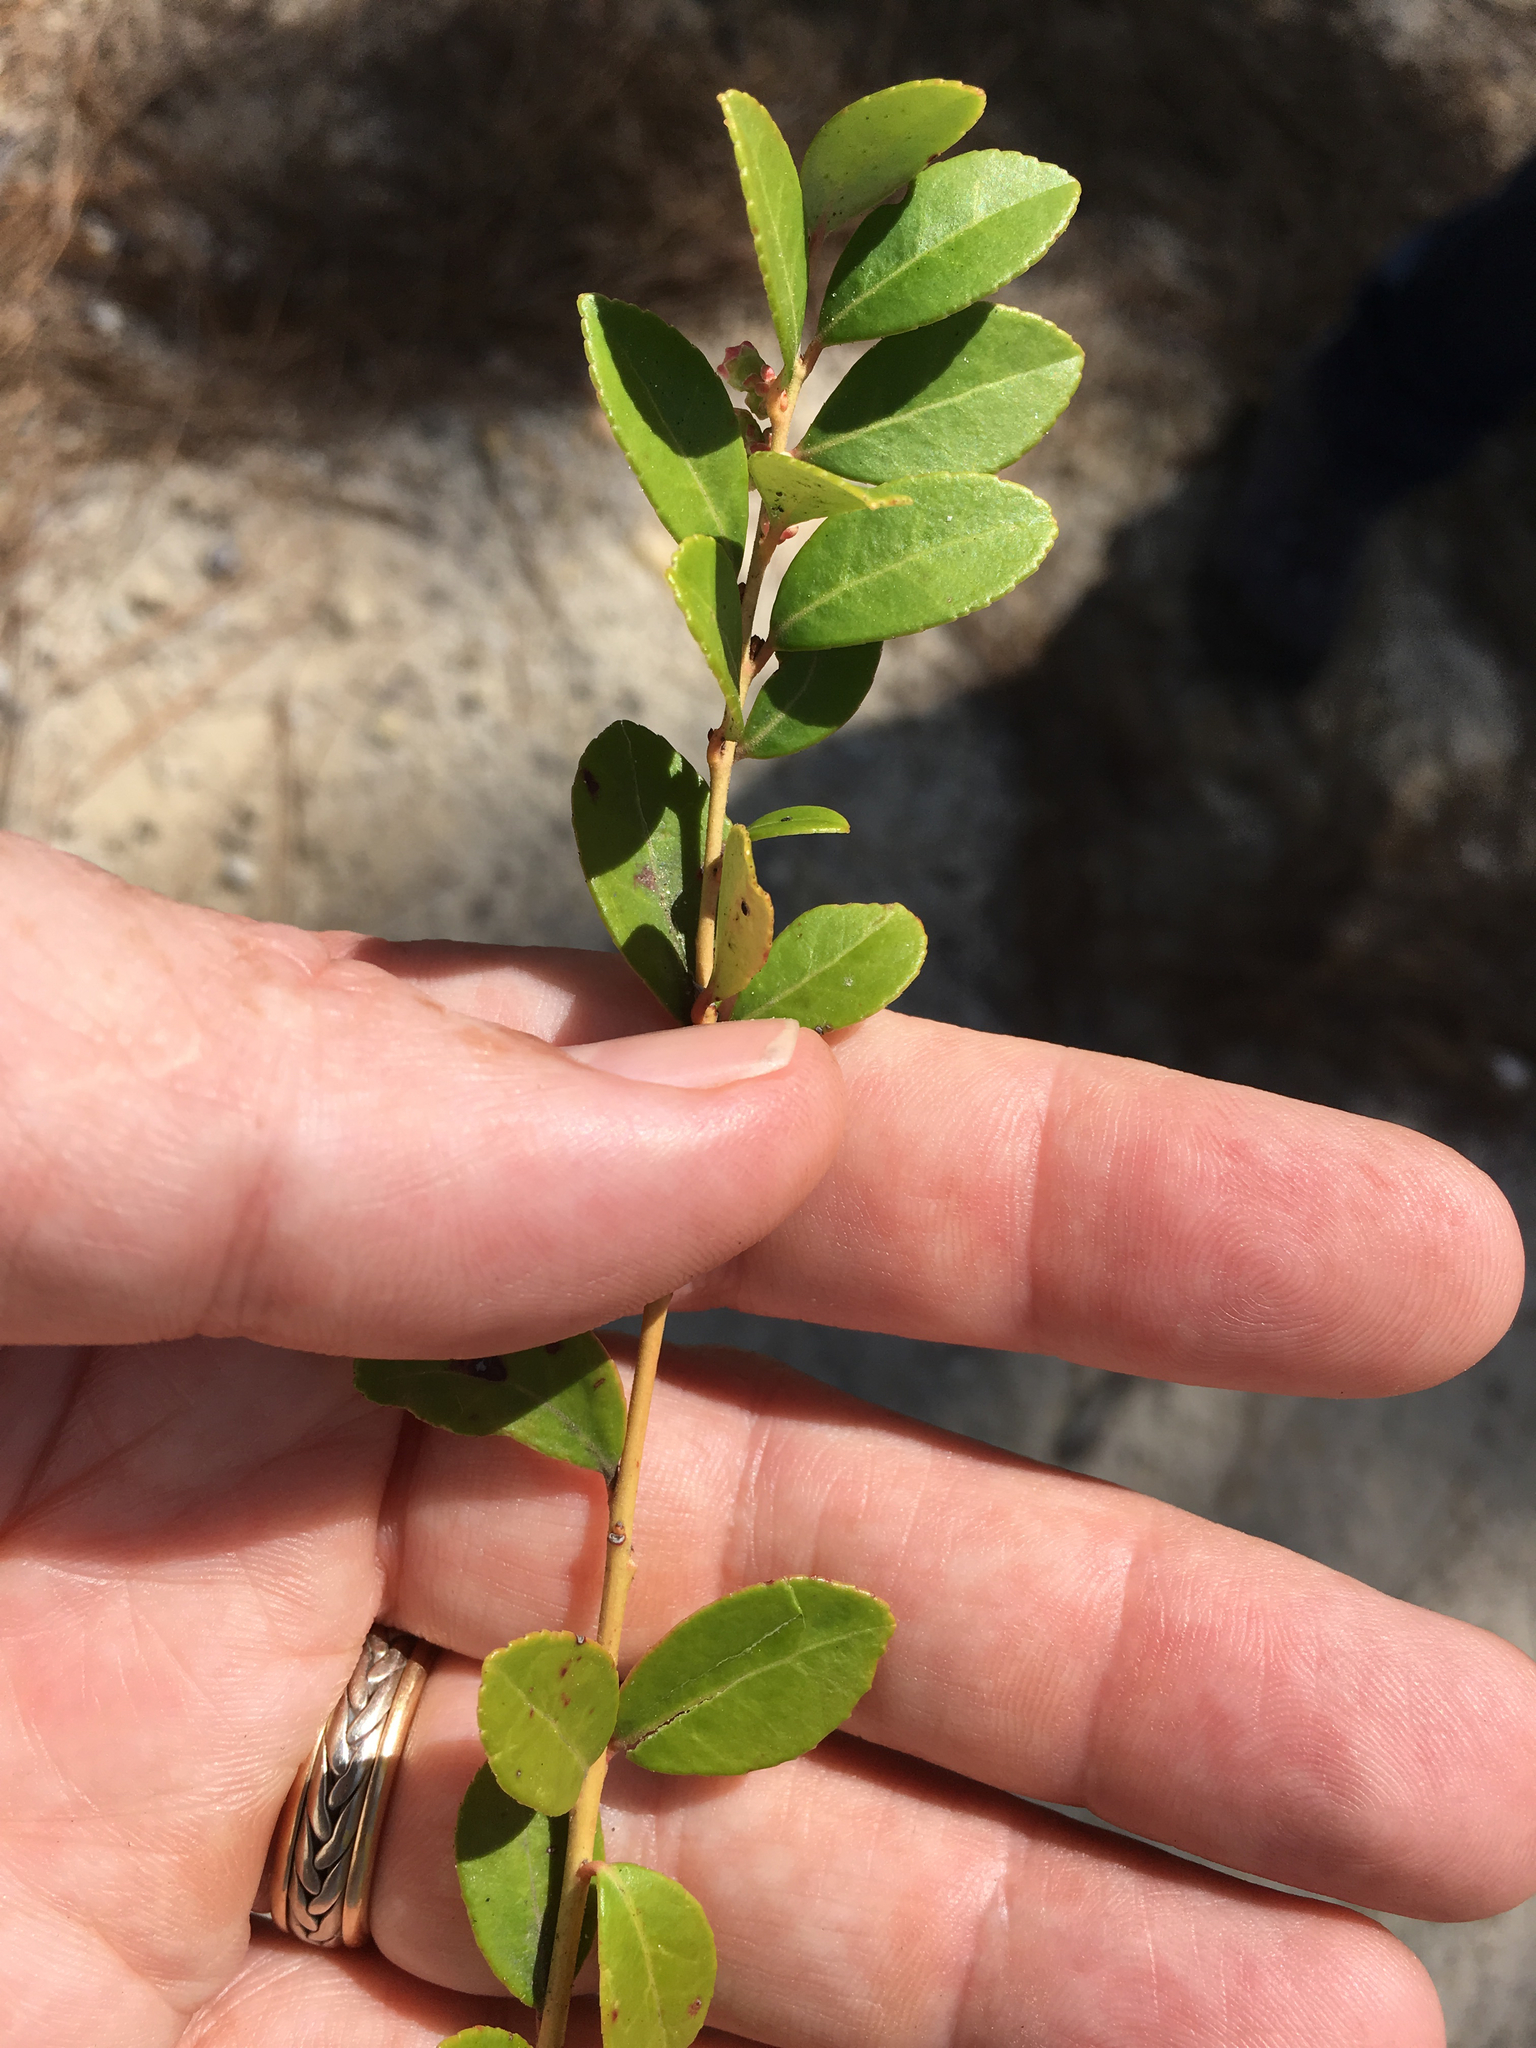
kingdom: Plantae
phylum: Tracheophyta
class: Magnoliopsida
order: Ericales
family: Ericaceae
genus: Vaccinium
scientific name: Vaccinium crassifolium
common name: Creeping blueberry
